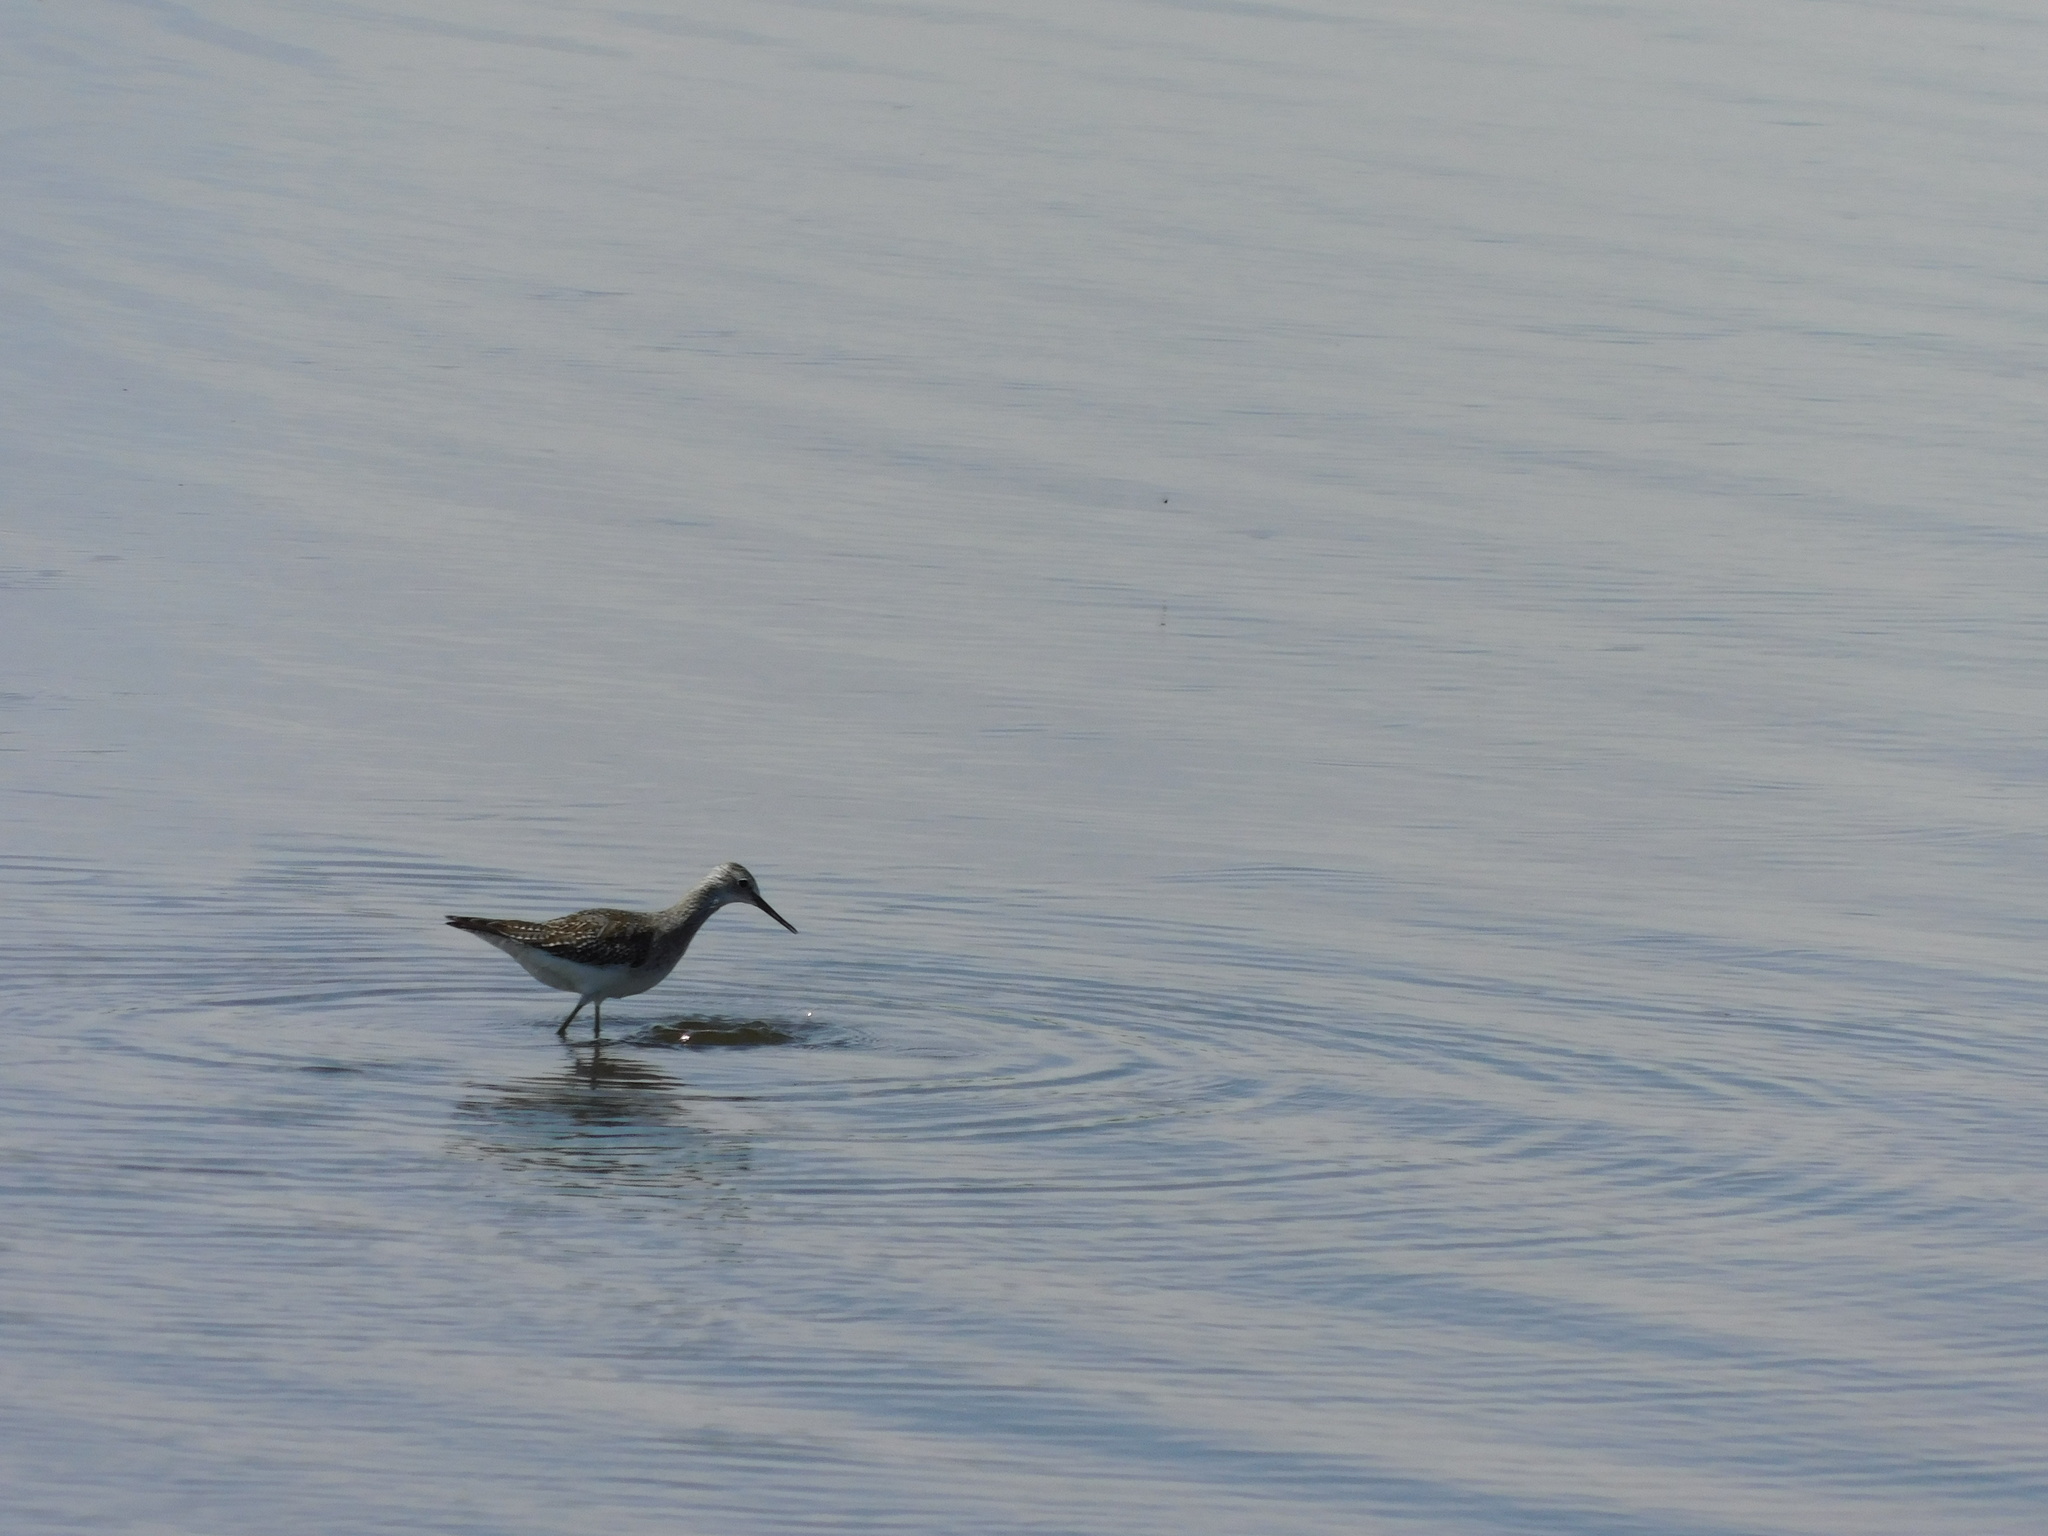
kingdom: Animalia
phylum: Chordata
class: Aves
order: Charadriiformes
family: Scolopacidae
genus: Tringa
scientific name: Tringa flavipes
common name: Lesser yellowlegs
